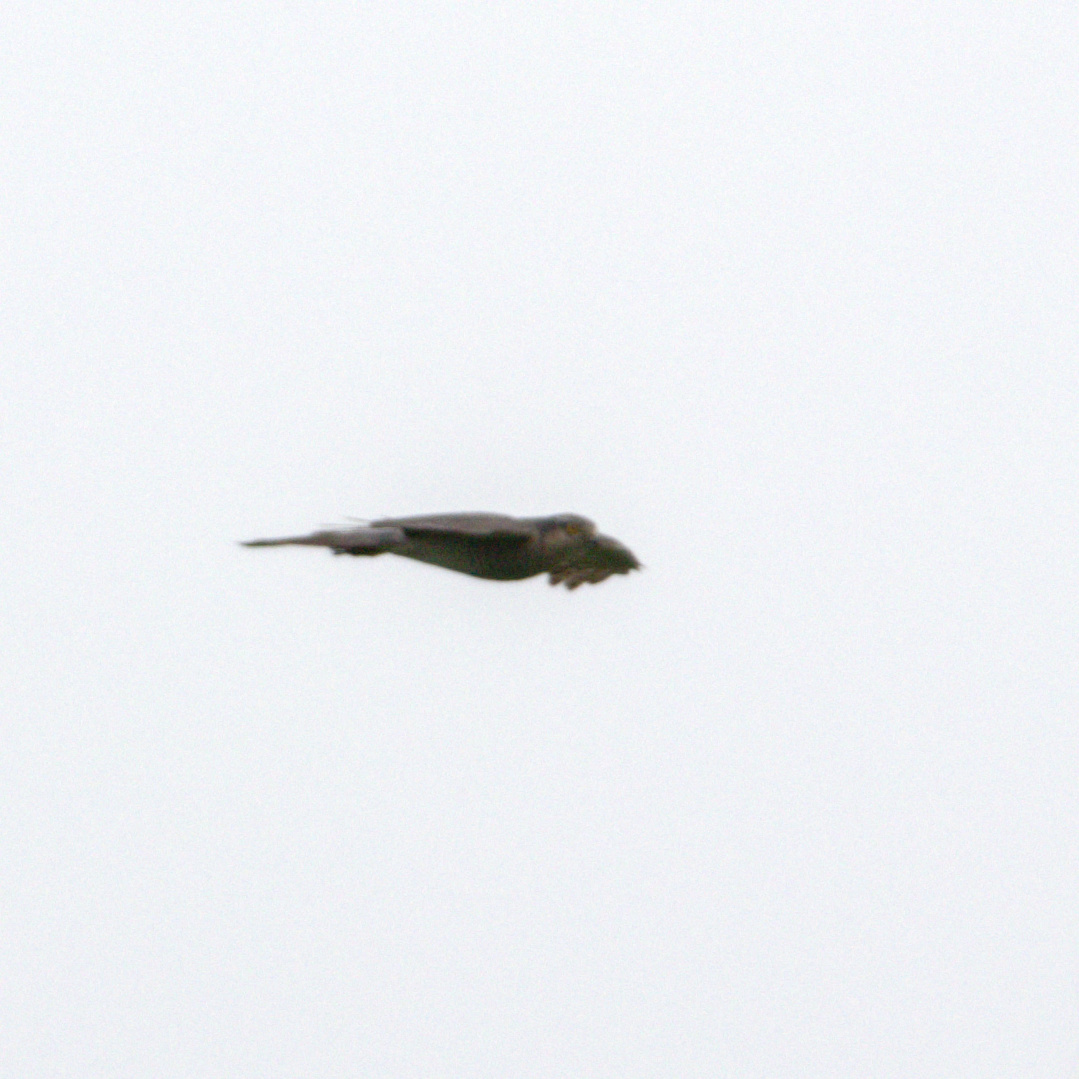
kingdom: Animalia
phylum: Chordata
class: Aves
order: Accipitriformes
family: Accipitridae
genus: Accipiter
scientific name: Accipiter nisus
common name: Eurasian sparrowhawk
